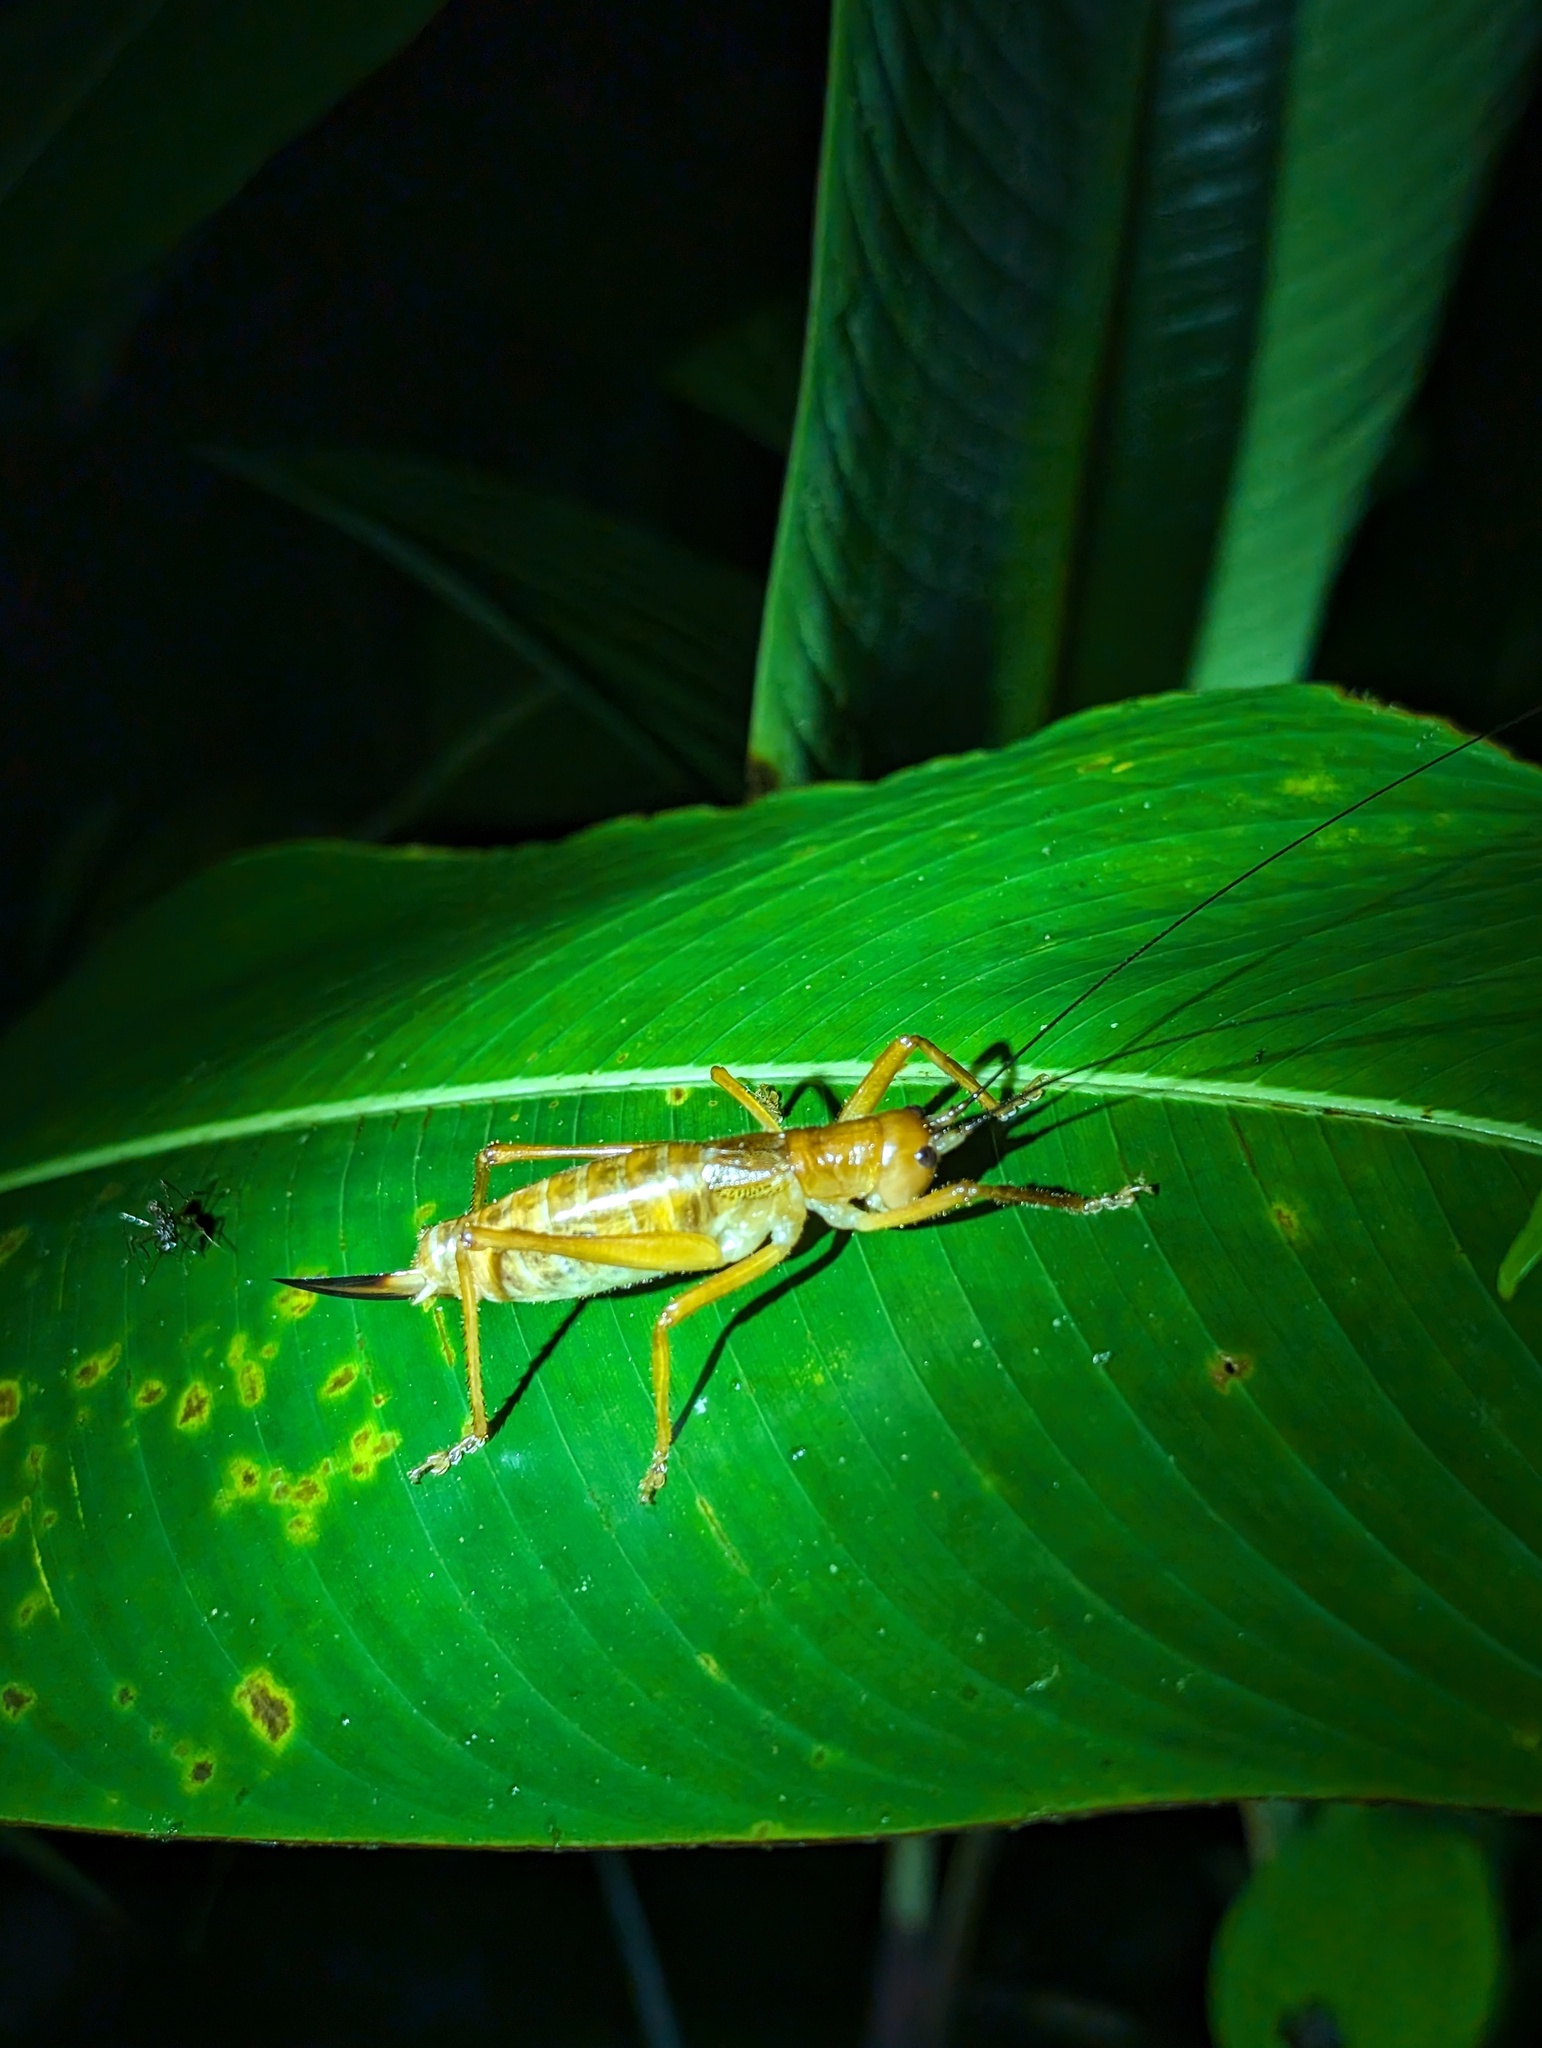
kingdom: Animalia
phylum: Arthropoda
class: Insecta
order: Orthoptera
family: Tettigoniidae
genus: Melanonotus
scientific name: Melanonotus powellorum
